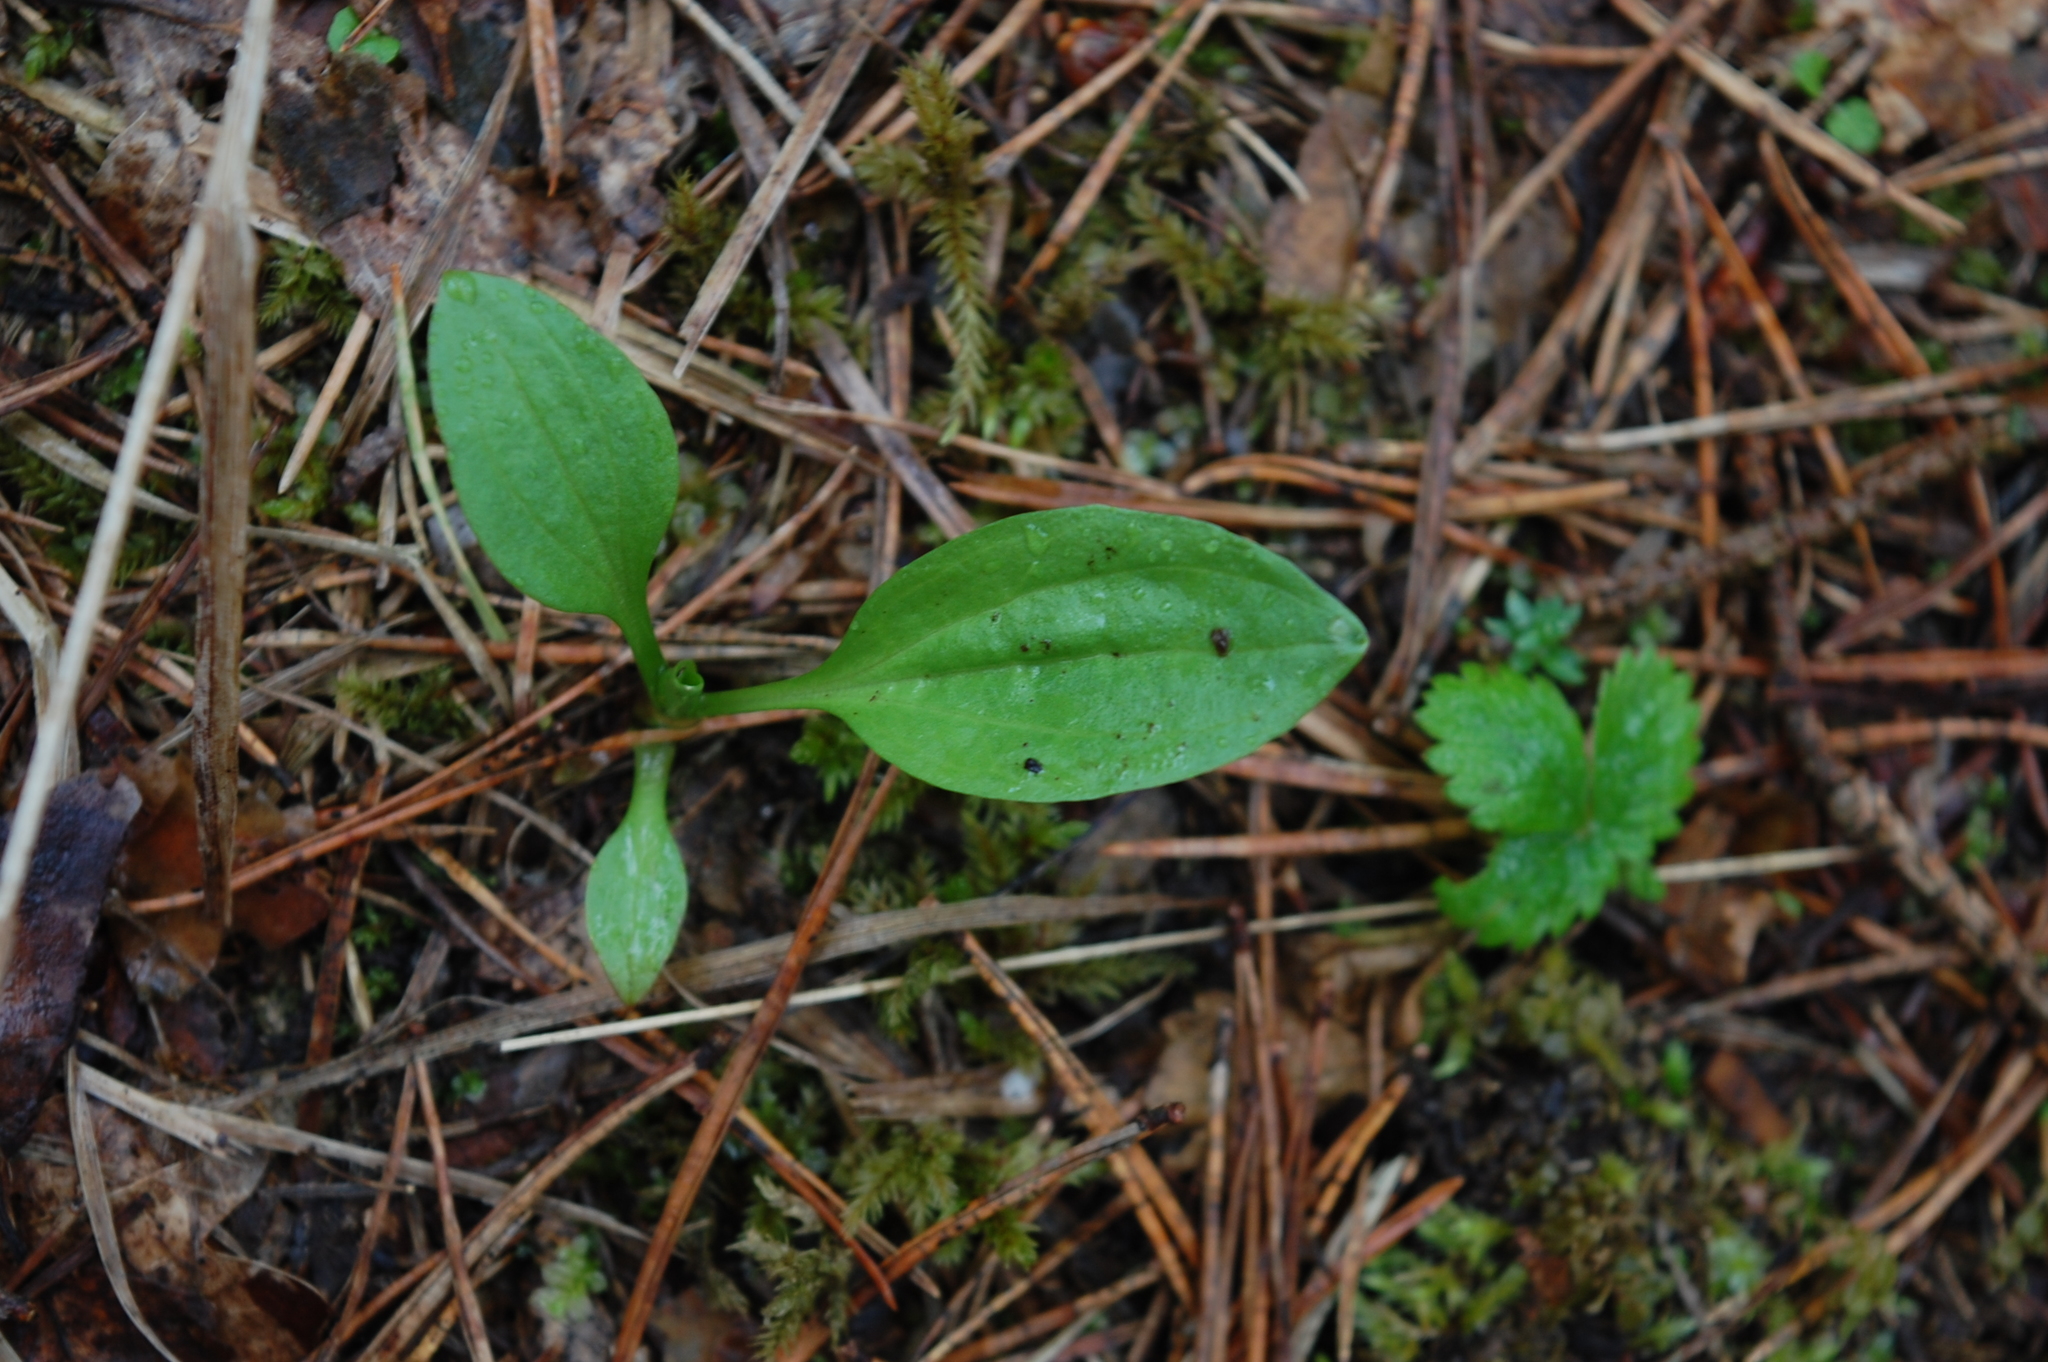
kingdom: Plantae
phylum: Tracheophyta
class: Magnoliopsida
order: Lamiales
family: Plantaginaceae
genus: Plantago
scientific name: Plantago major
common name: Common plantain
